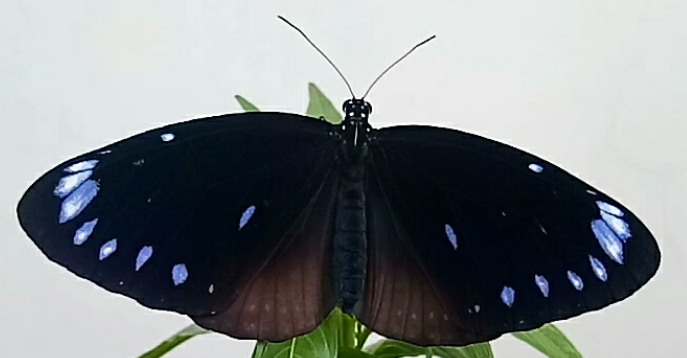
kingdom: Animalia
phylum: Arthropoda
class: Insecta
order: Lepidoptera
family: Nymphalidae
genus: Euploea
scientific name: Euploea eunice
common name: Blue-banded king crow butterfly
